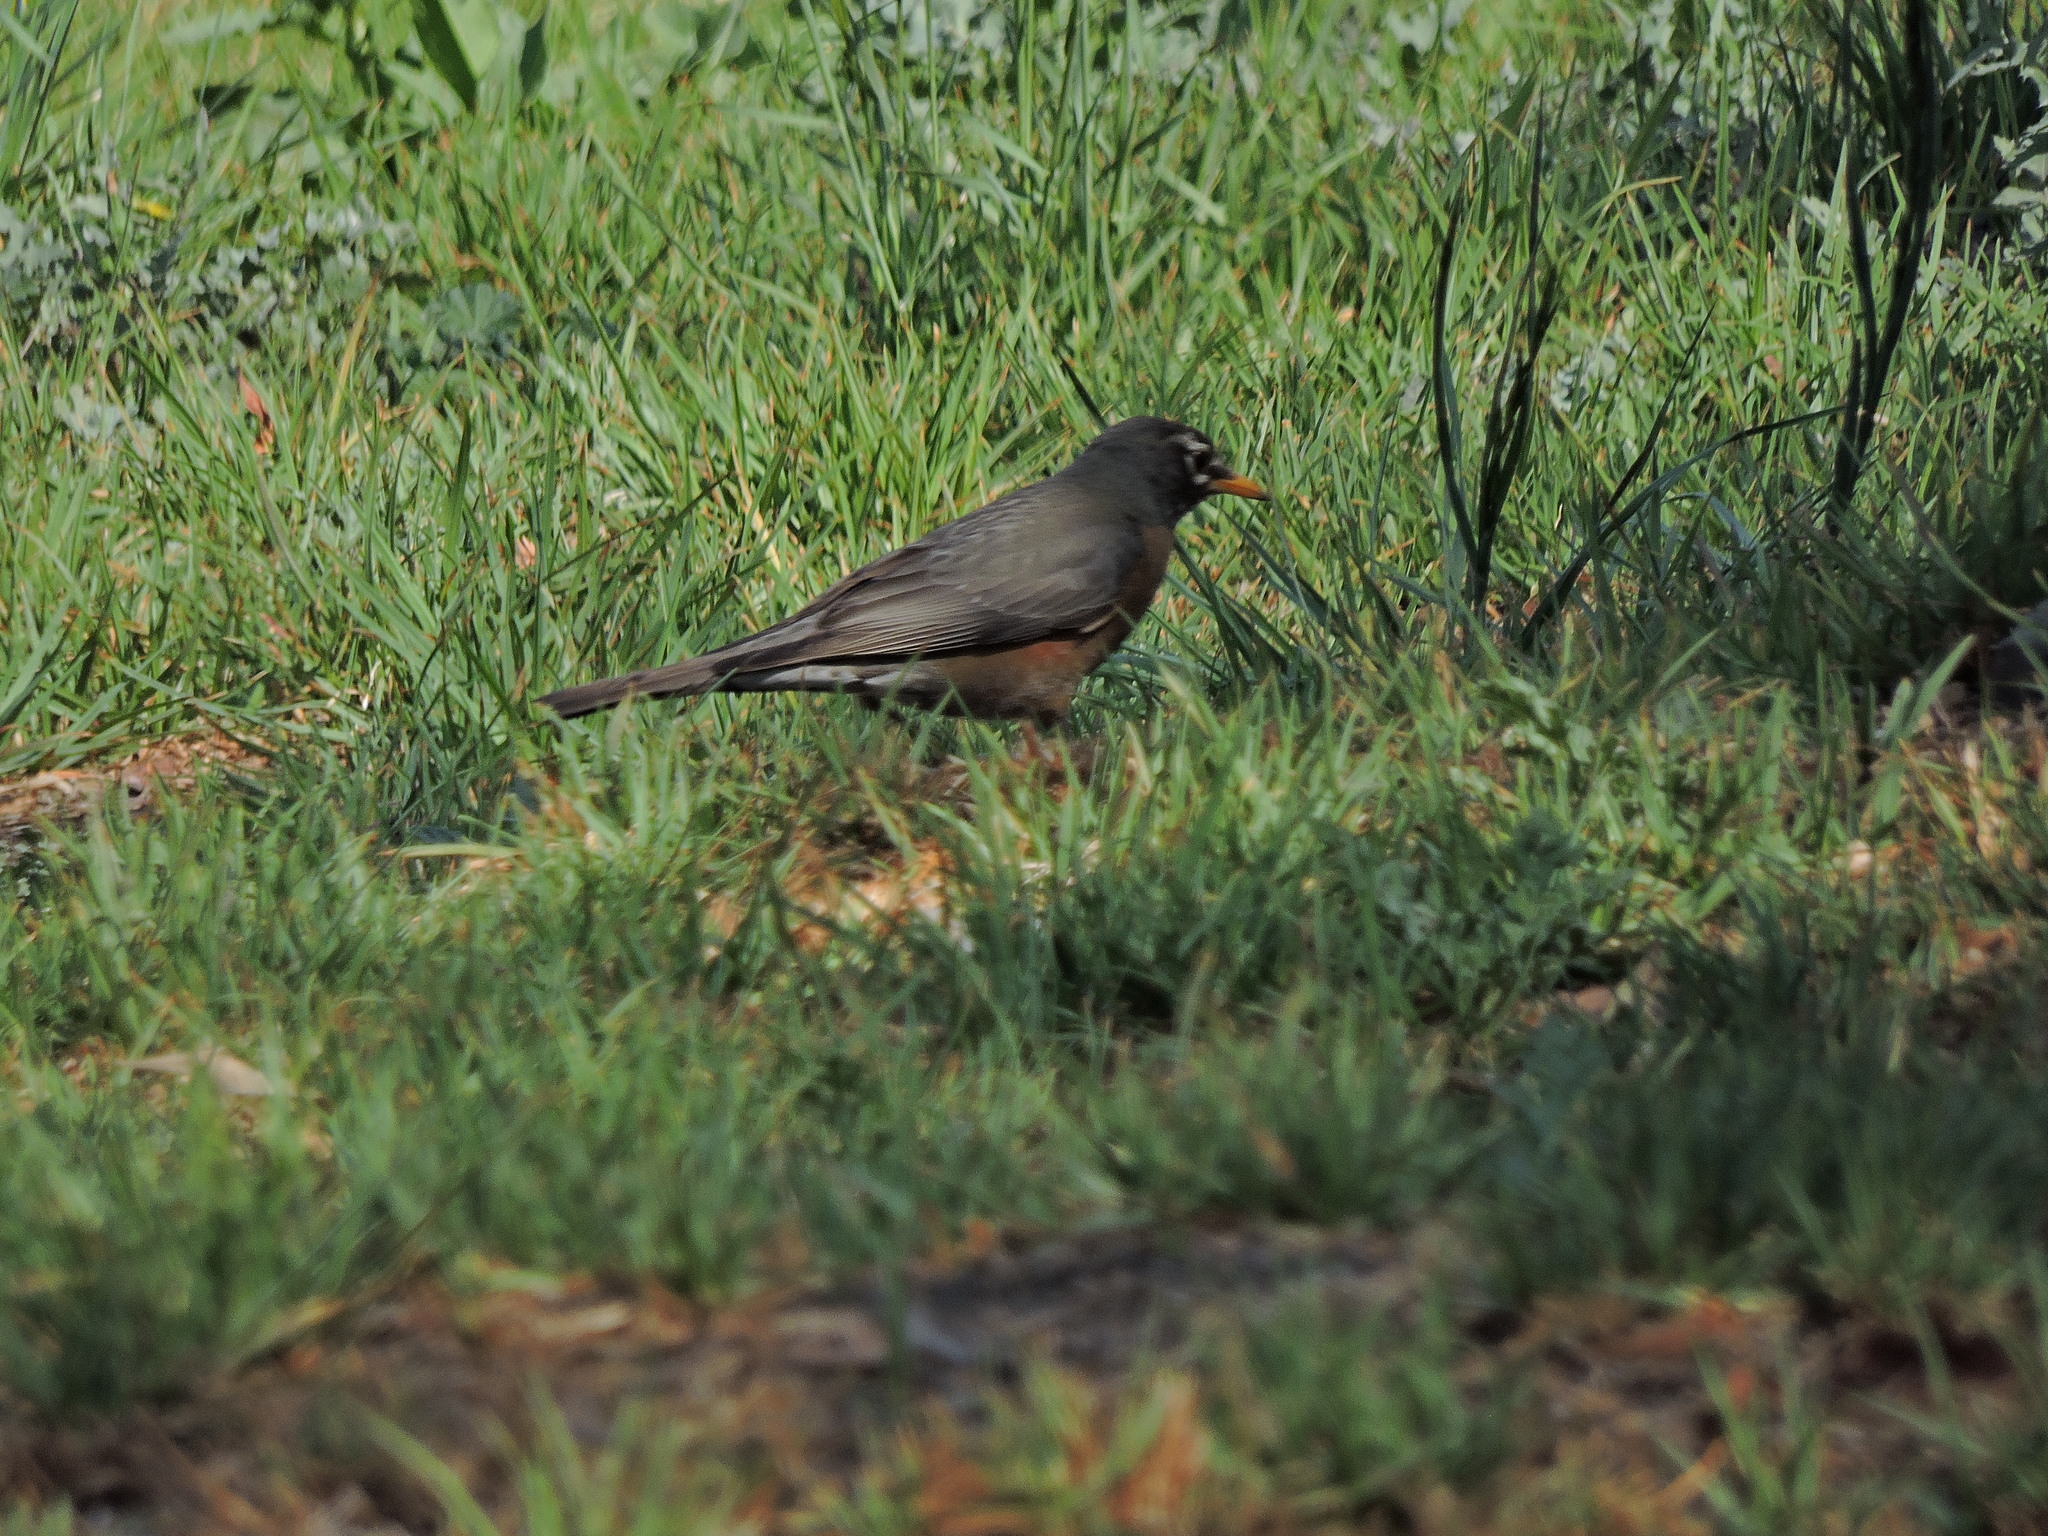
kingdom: Animalia
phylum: Chordata
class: Aves
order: Passeriformes
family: Turdidae
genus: Turdus
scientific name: Turdus migratorius
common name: American robin
